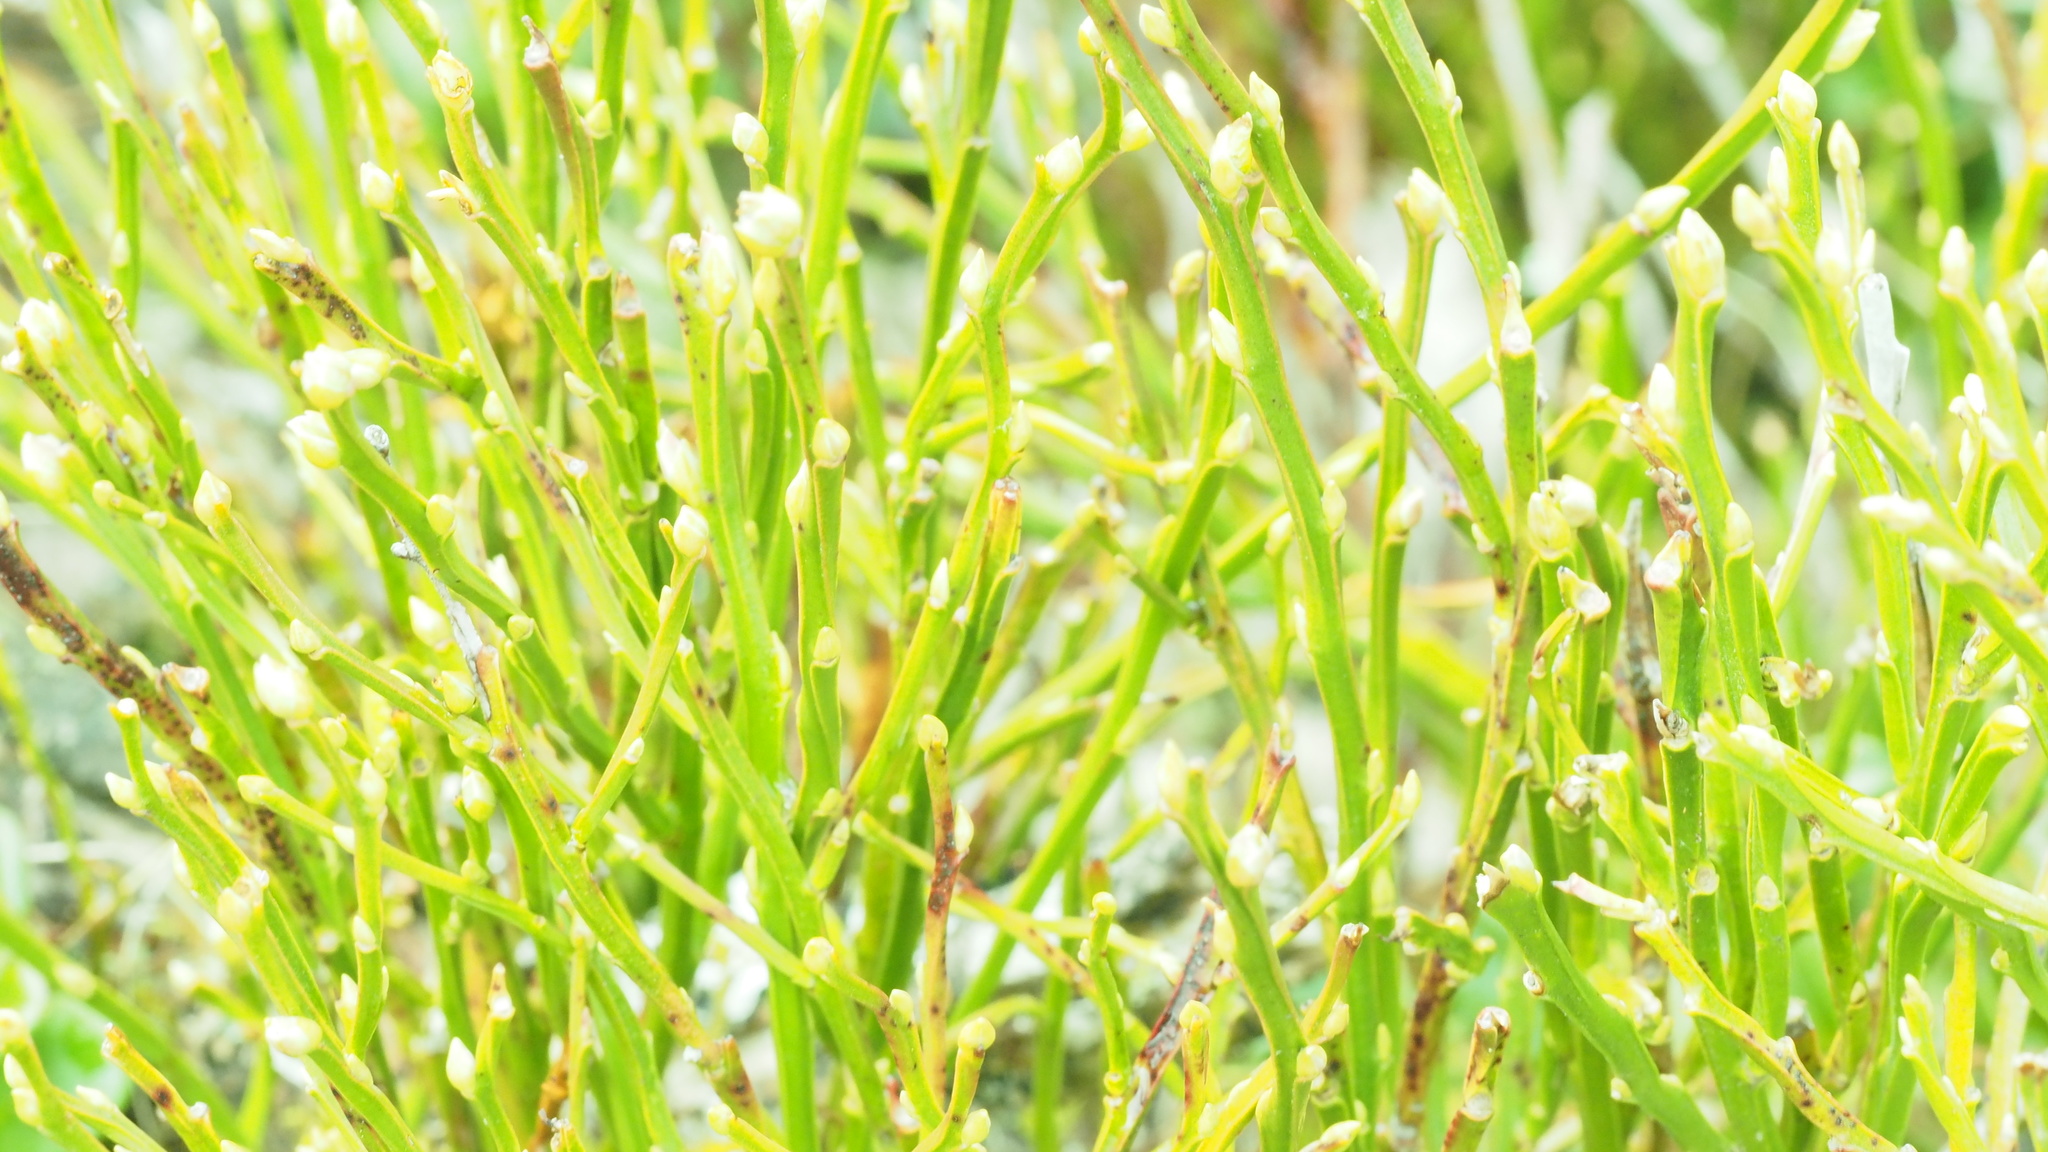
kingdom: Plantae
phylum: Tracheophyta
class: Magnoliopsida
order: Ericales
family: Ericaceae
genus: Vaccinium
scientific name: Vaccinium myrtillus
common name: Bilberry
